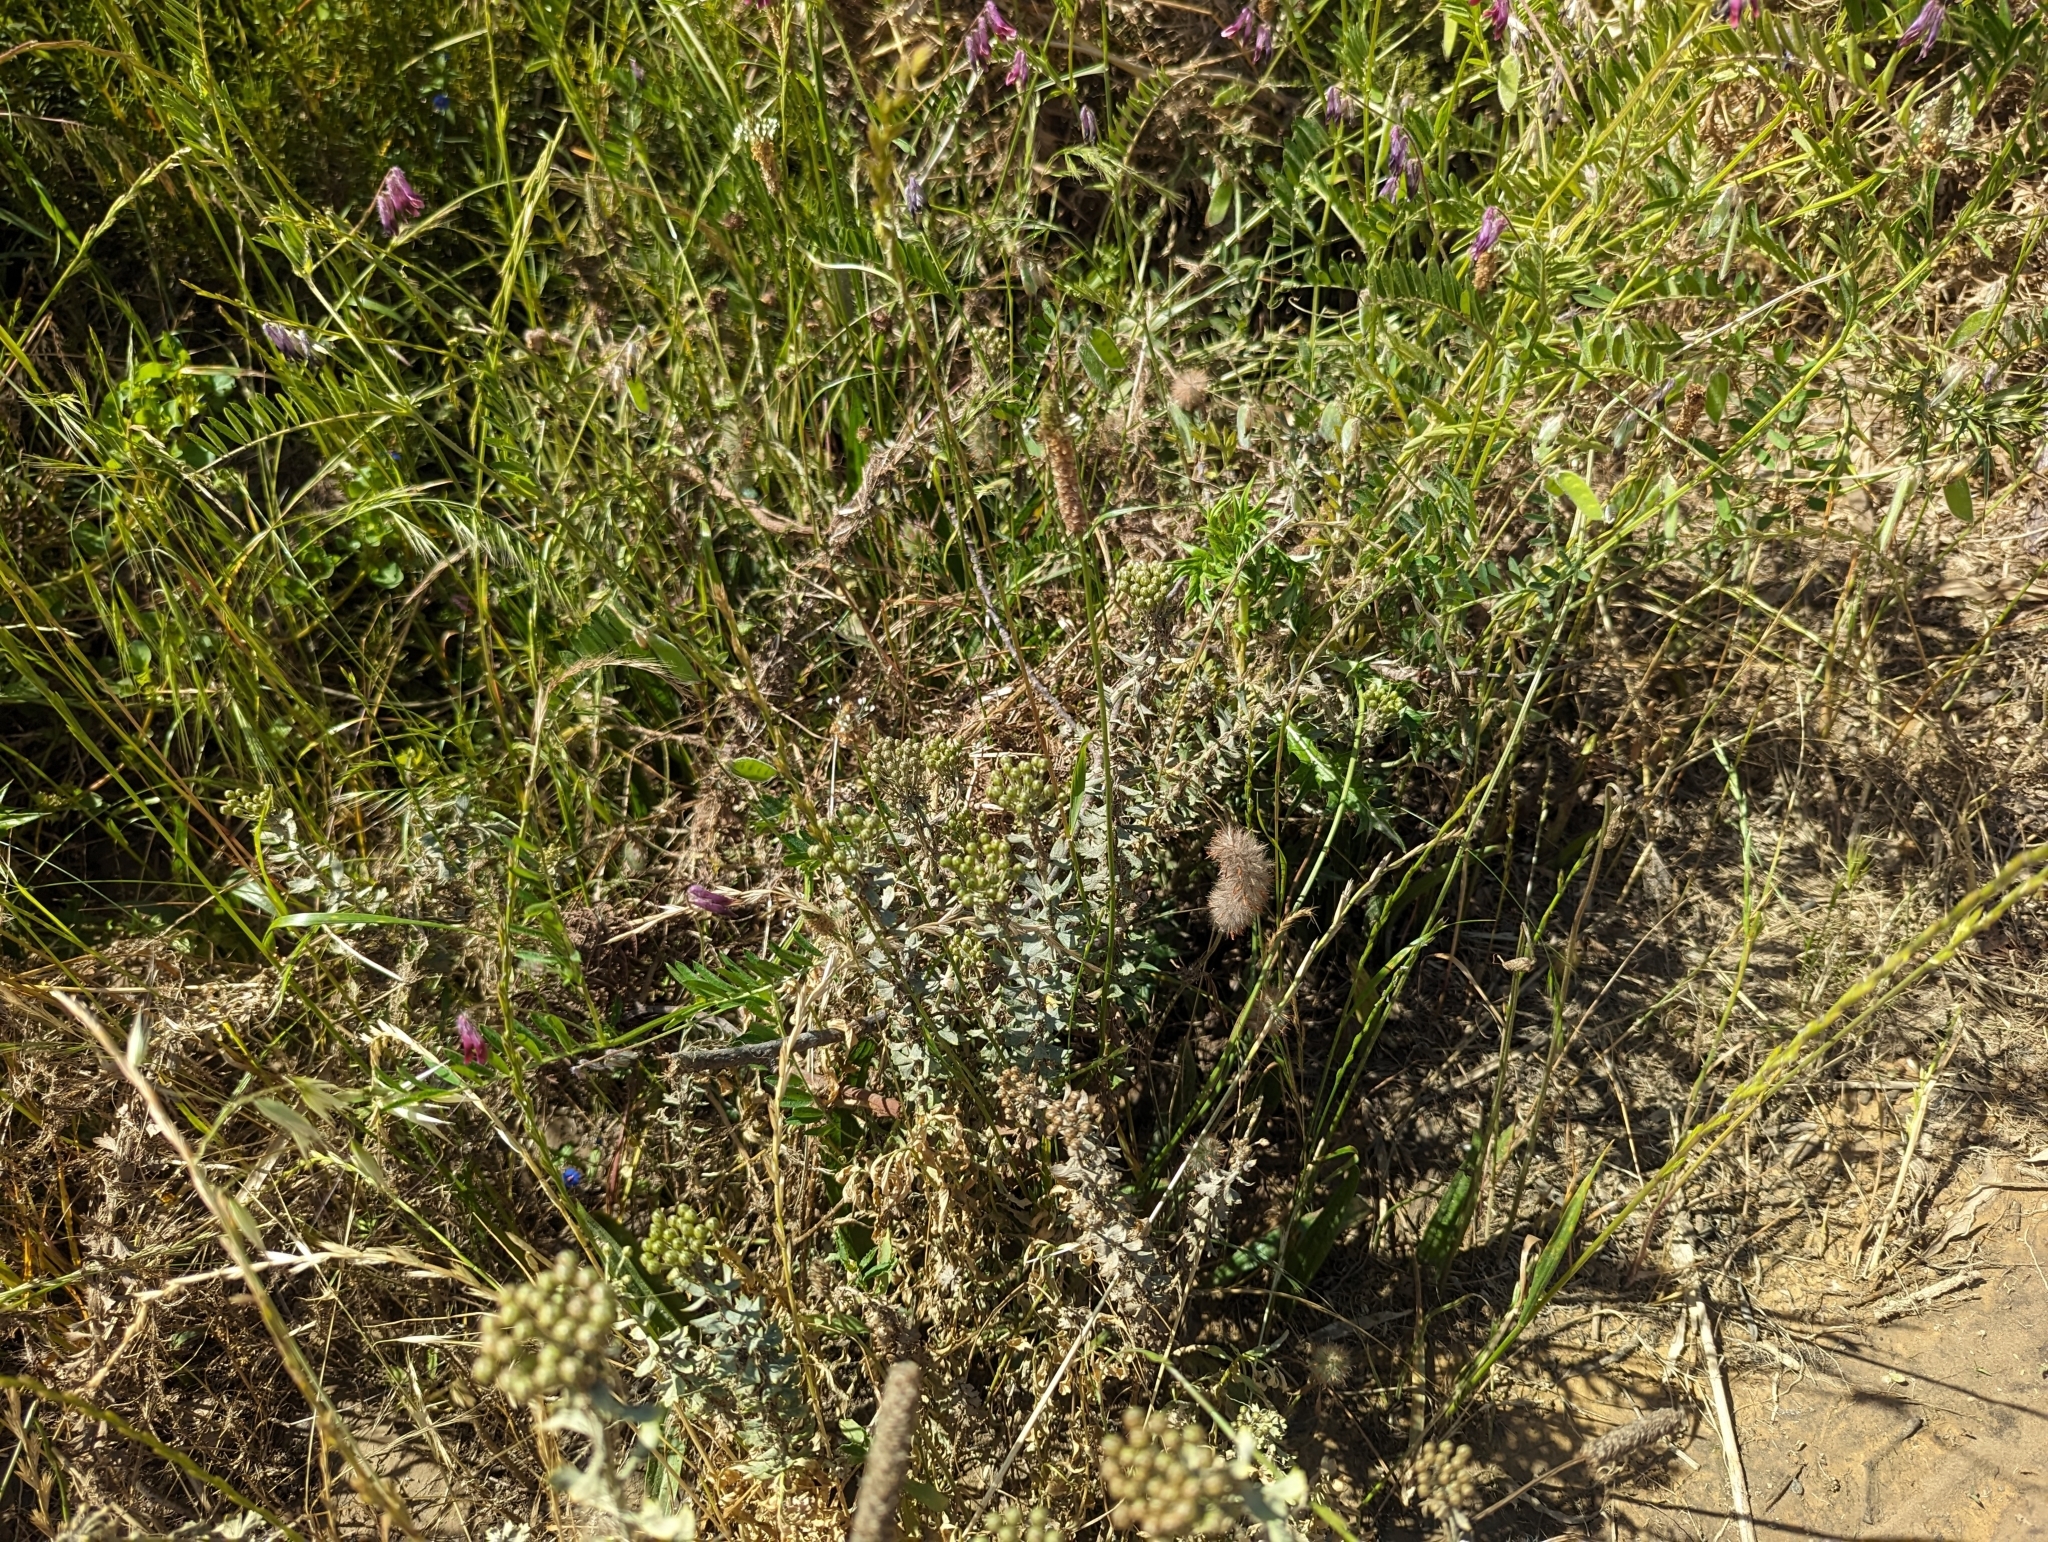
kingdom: Plantae
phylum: Tracheophyta
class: Magnoliopsida
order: Fabales
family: Fabaceae
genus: Trifolium
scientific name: Trifolium angustifolium
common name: Narrow clover
